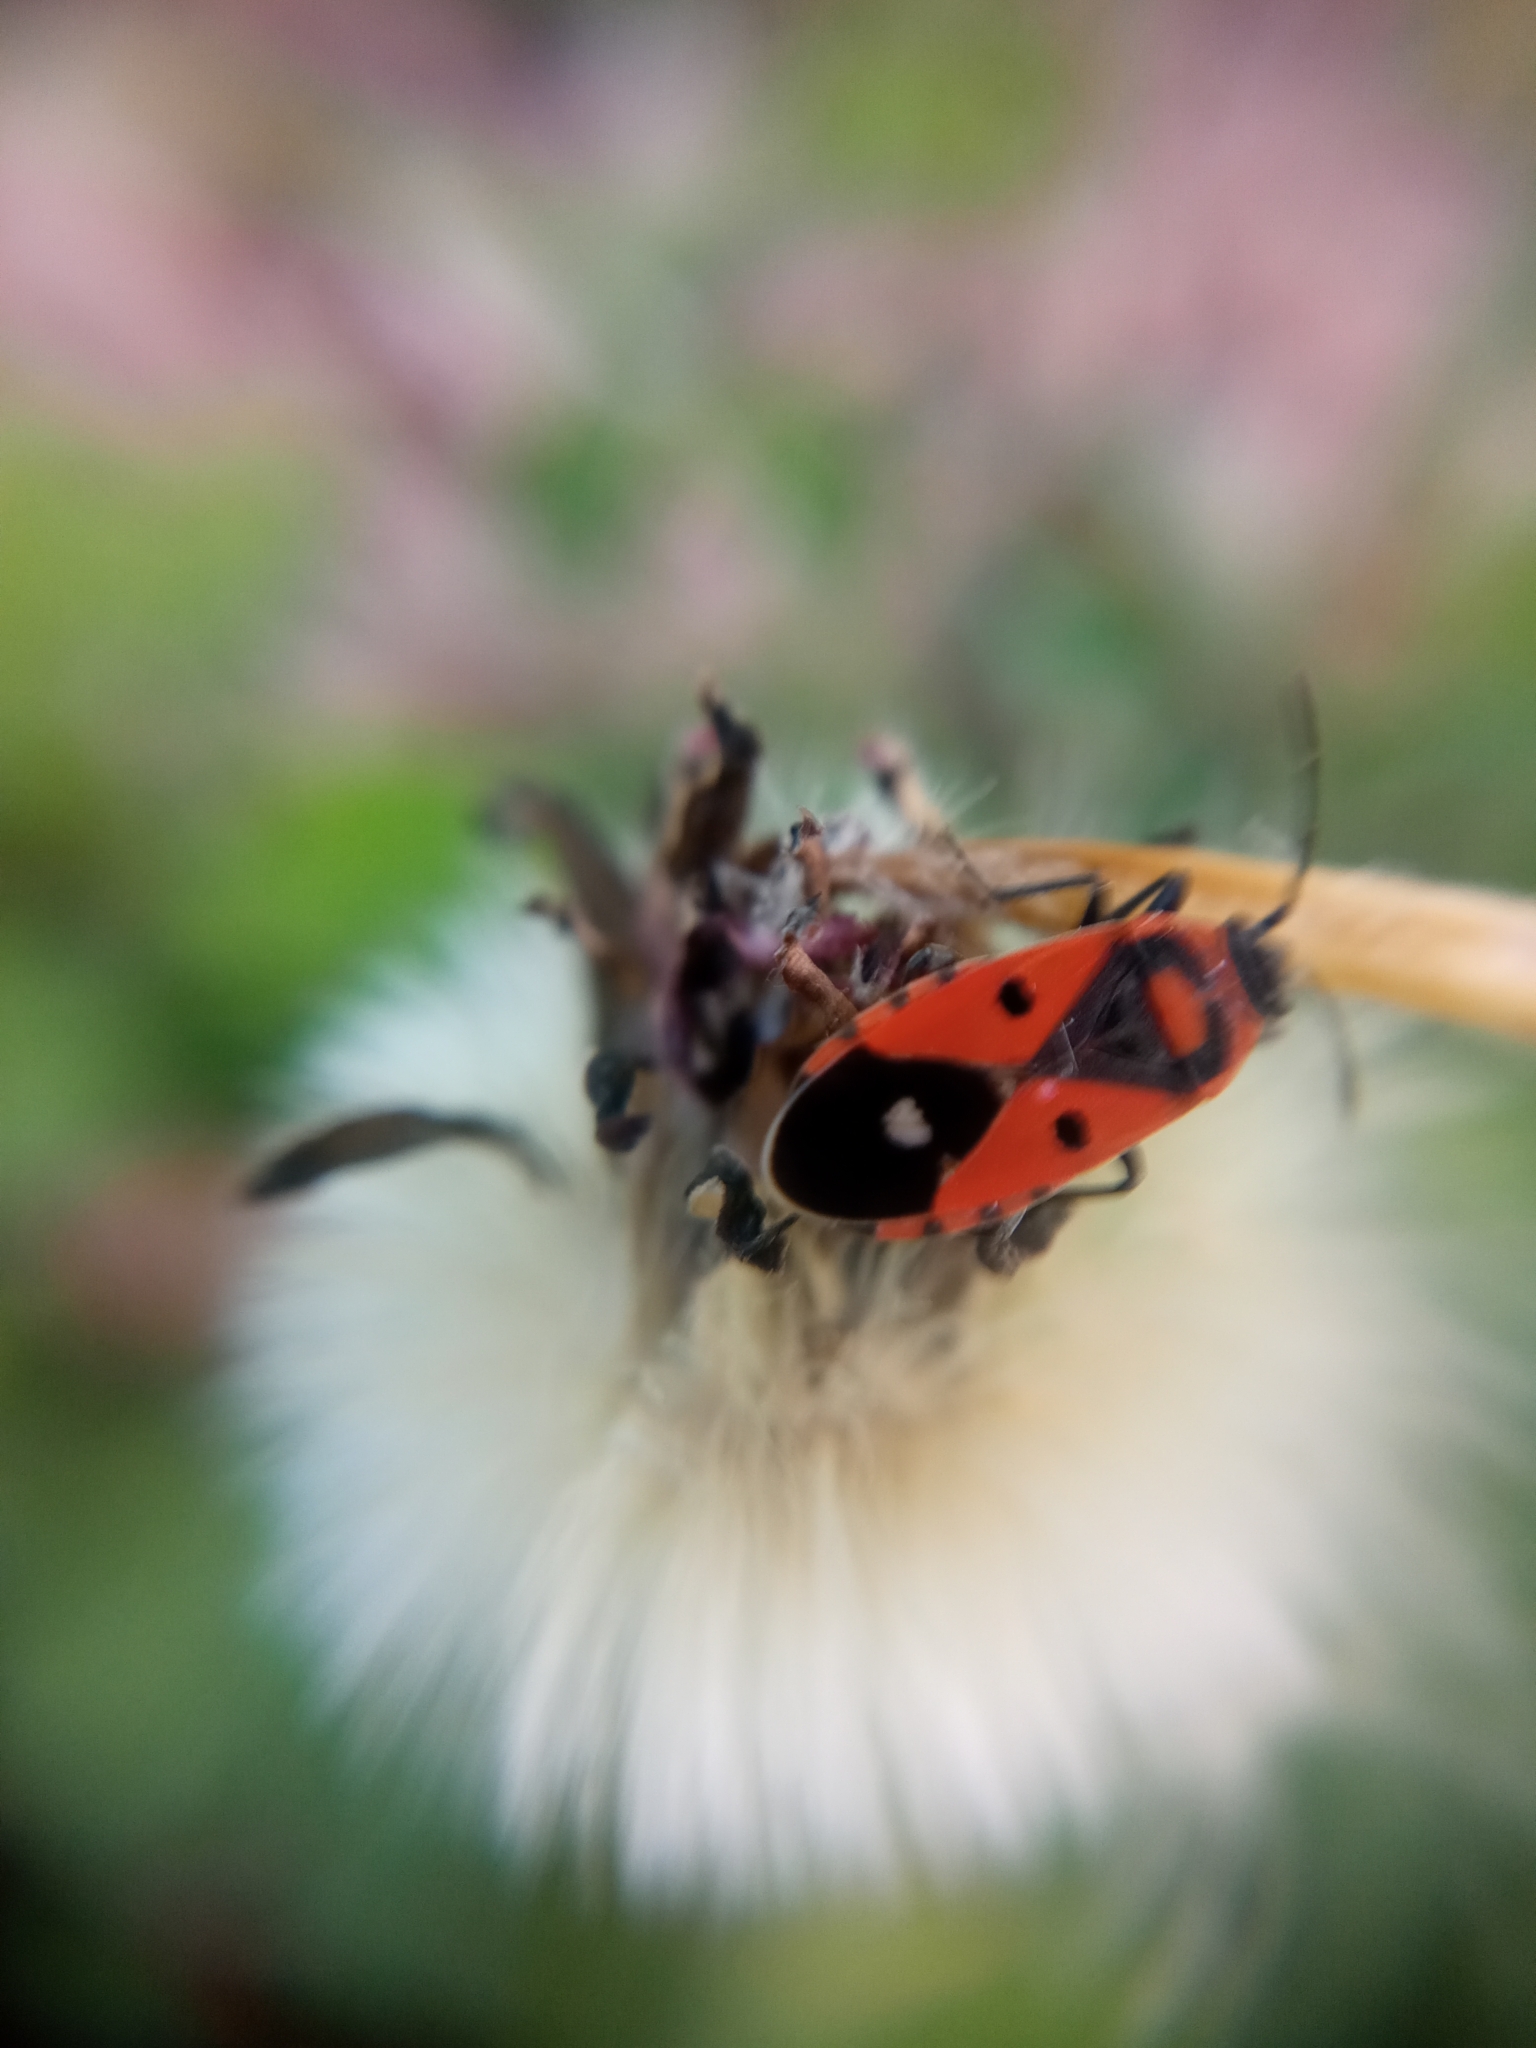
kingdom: Animalia
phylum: Arthropoda
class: Insecta
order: Hemiptera
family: Lygaeidae
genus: Melanocoryphus
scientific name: Melanocoryphus albomaculatus
